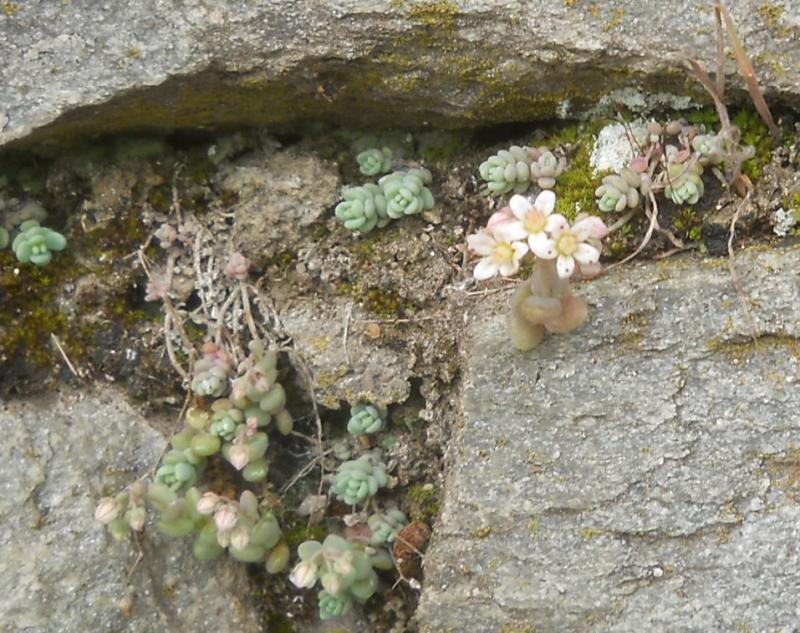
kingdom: Plantae
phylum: Tracheophyta
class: Magnoliopsida
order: Saxifragales
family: Crassulaceae
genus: Sedum
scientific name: Sedum dasyphyllum
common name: Thick-leaf stonecrop
